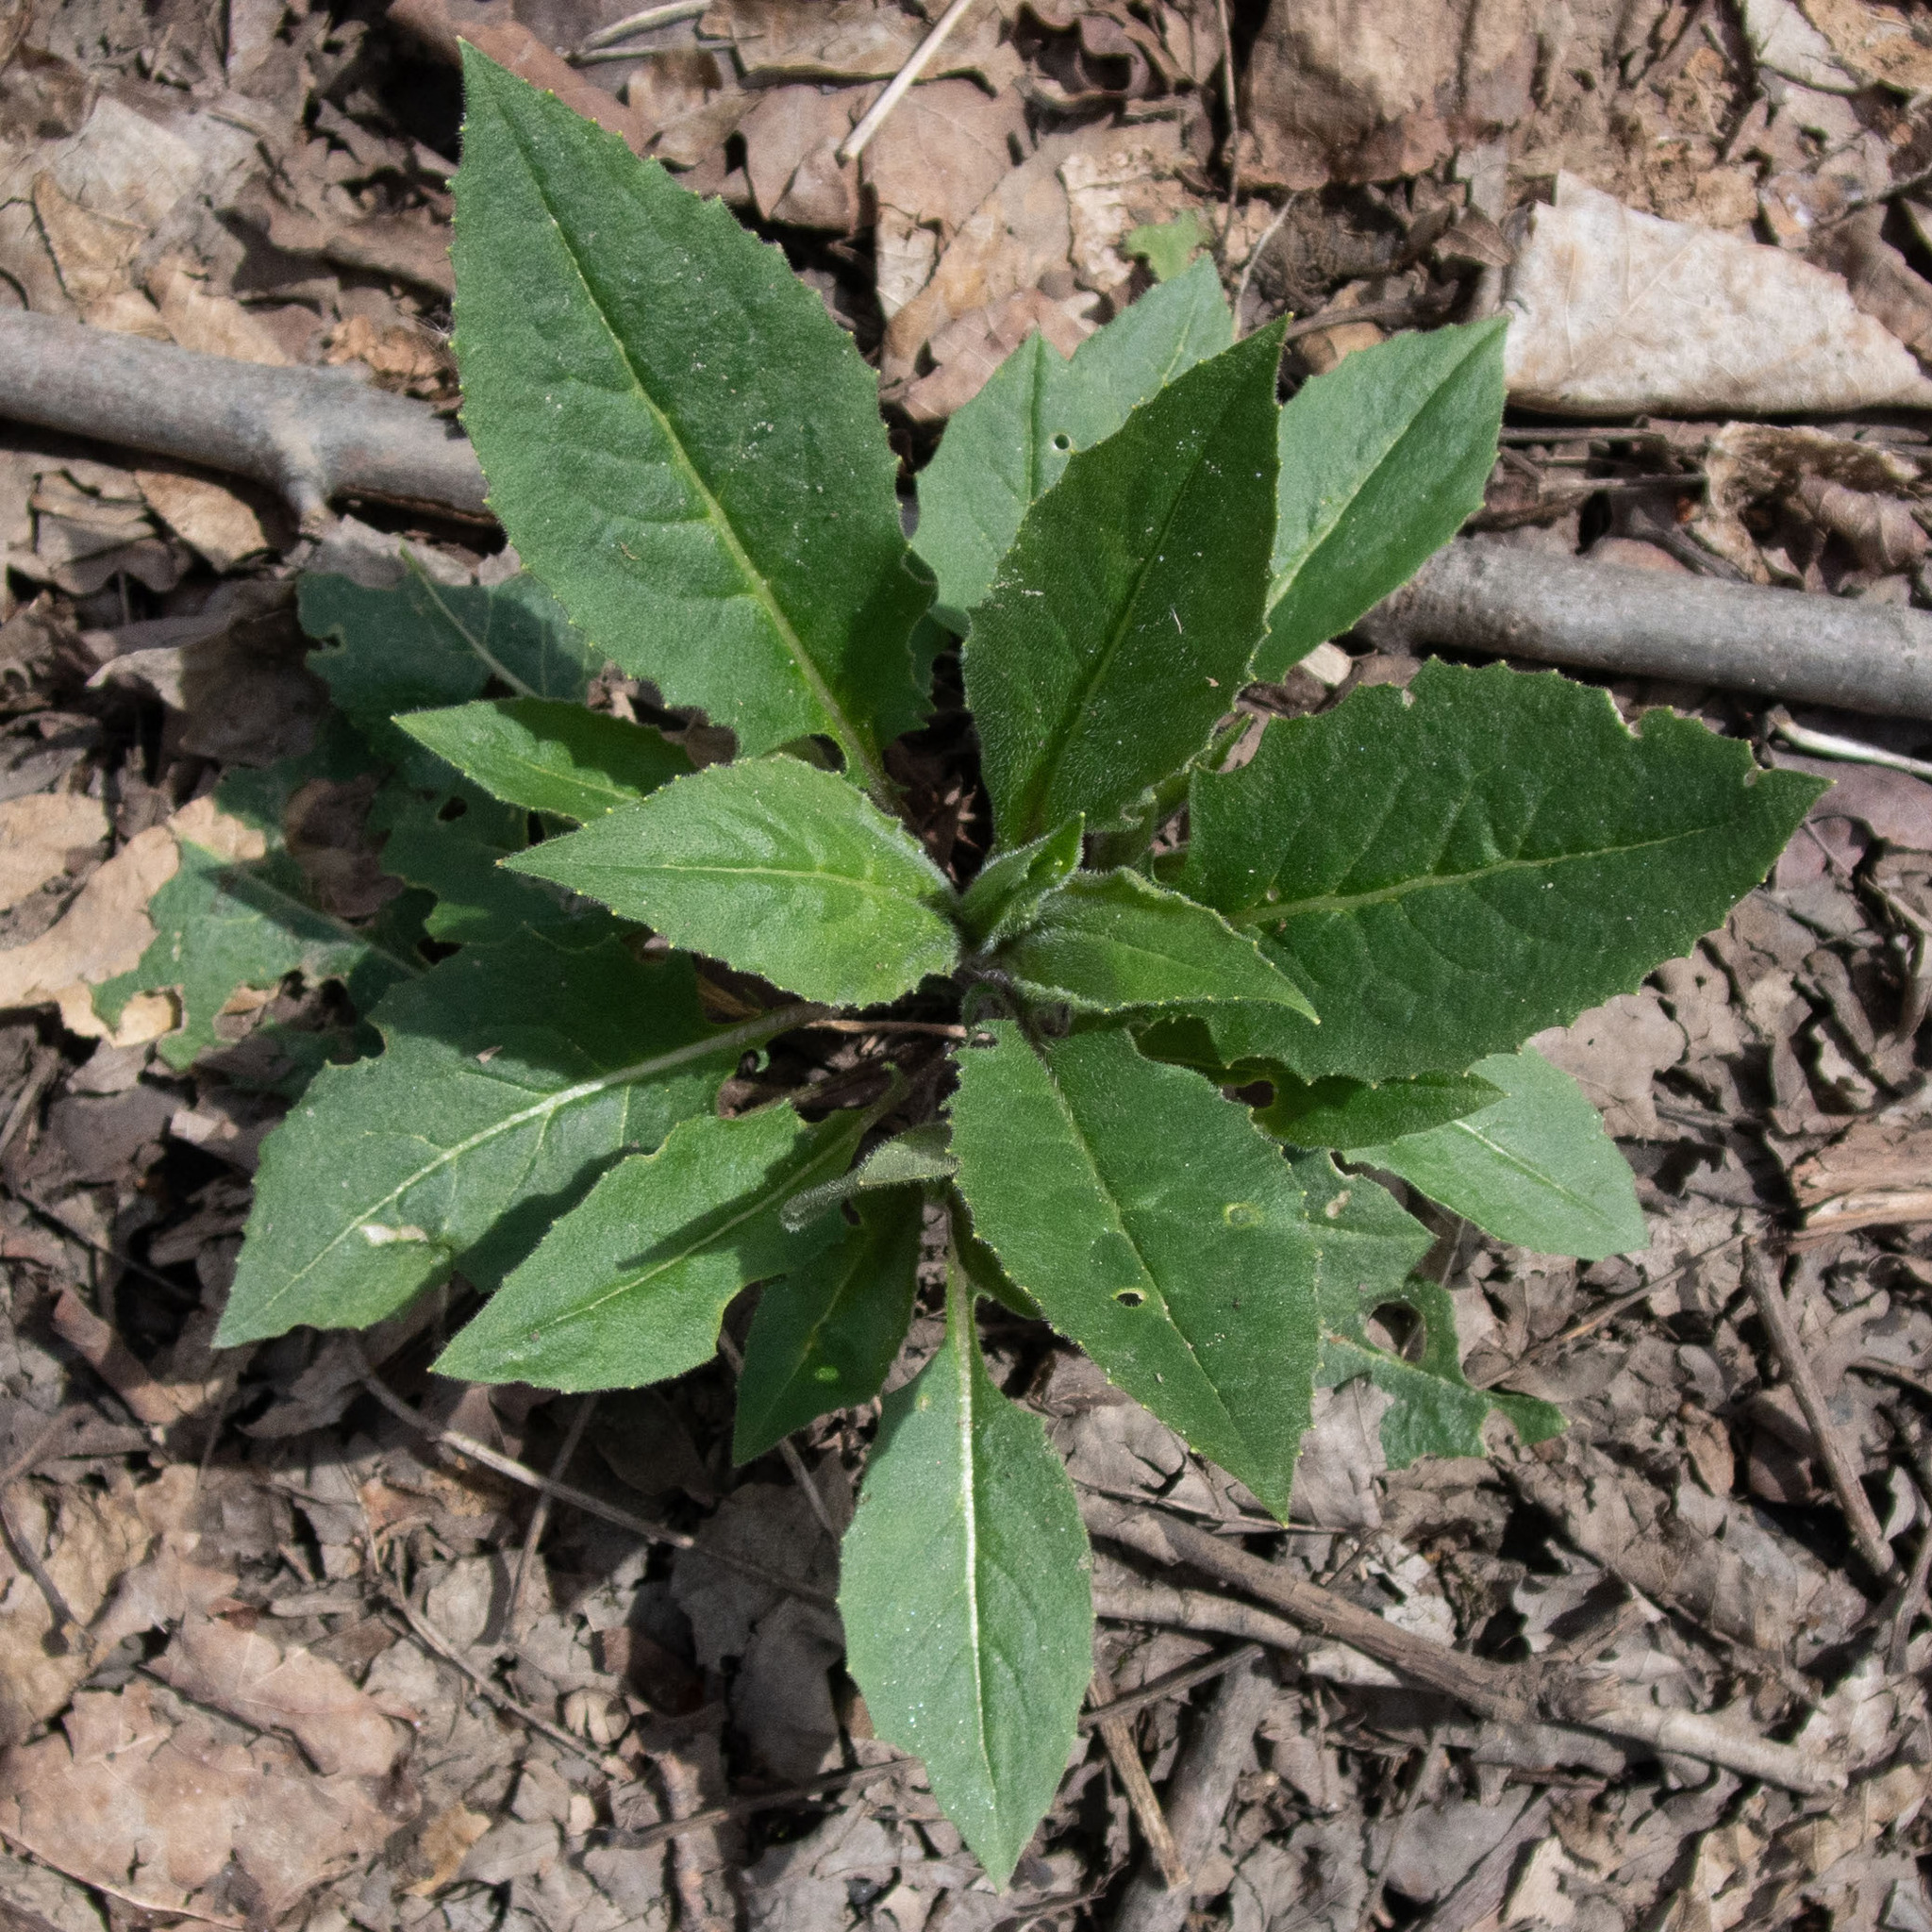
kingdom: Plantae
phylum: Tracheophyta
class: Magnoliopsida
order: Brassicales
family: Brassicaceae
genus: Hesperis
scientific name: Hesperis matronalis
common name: Dame's-violet
